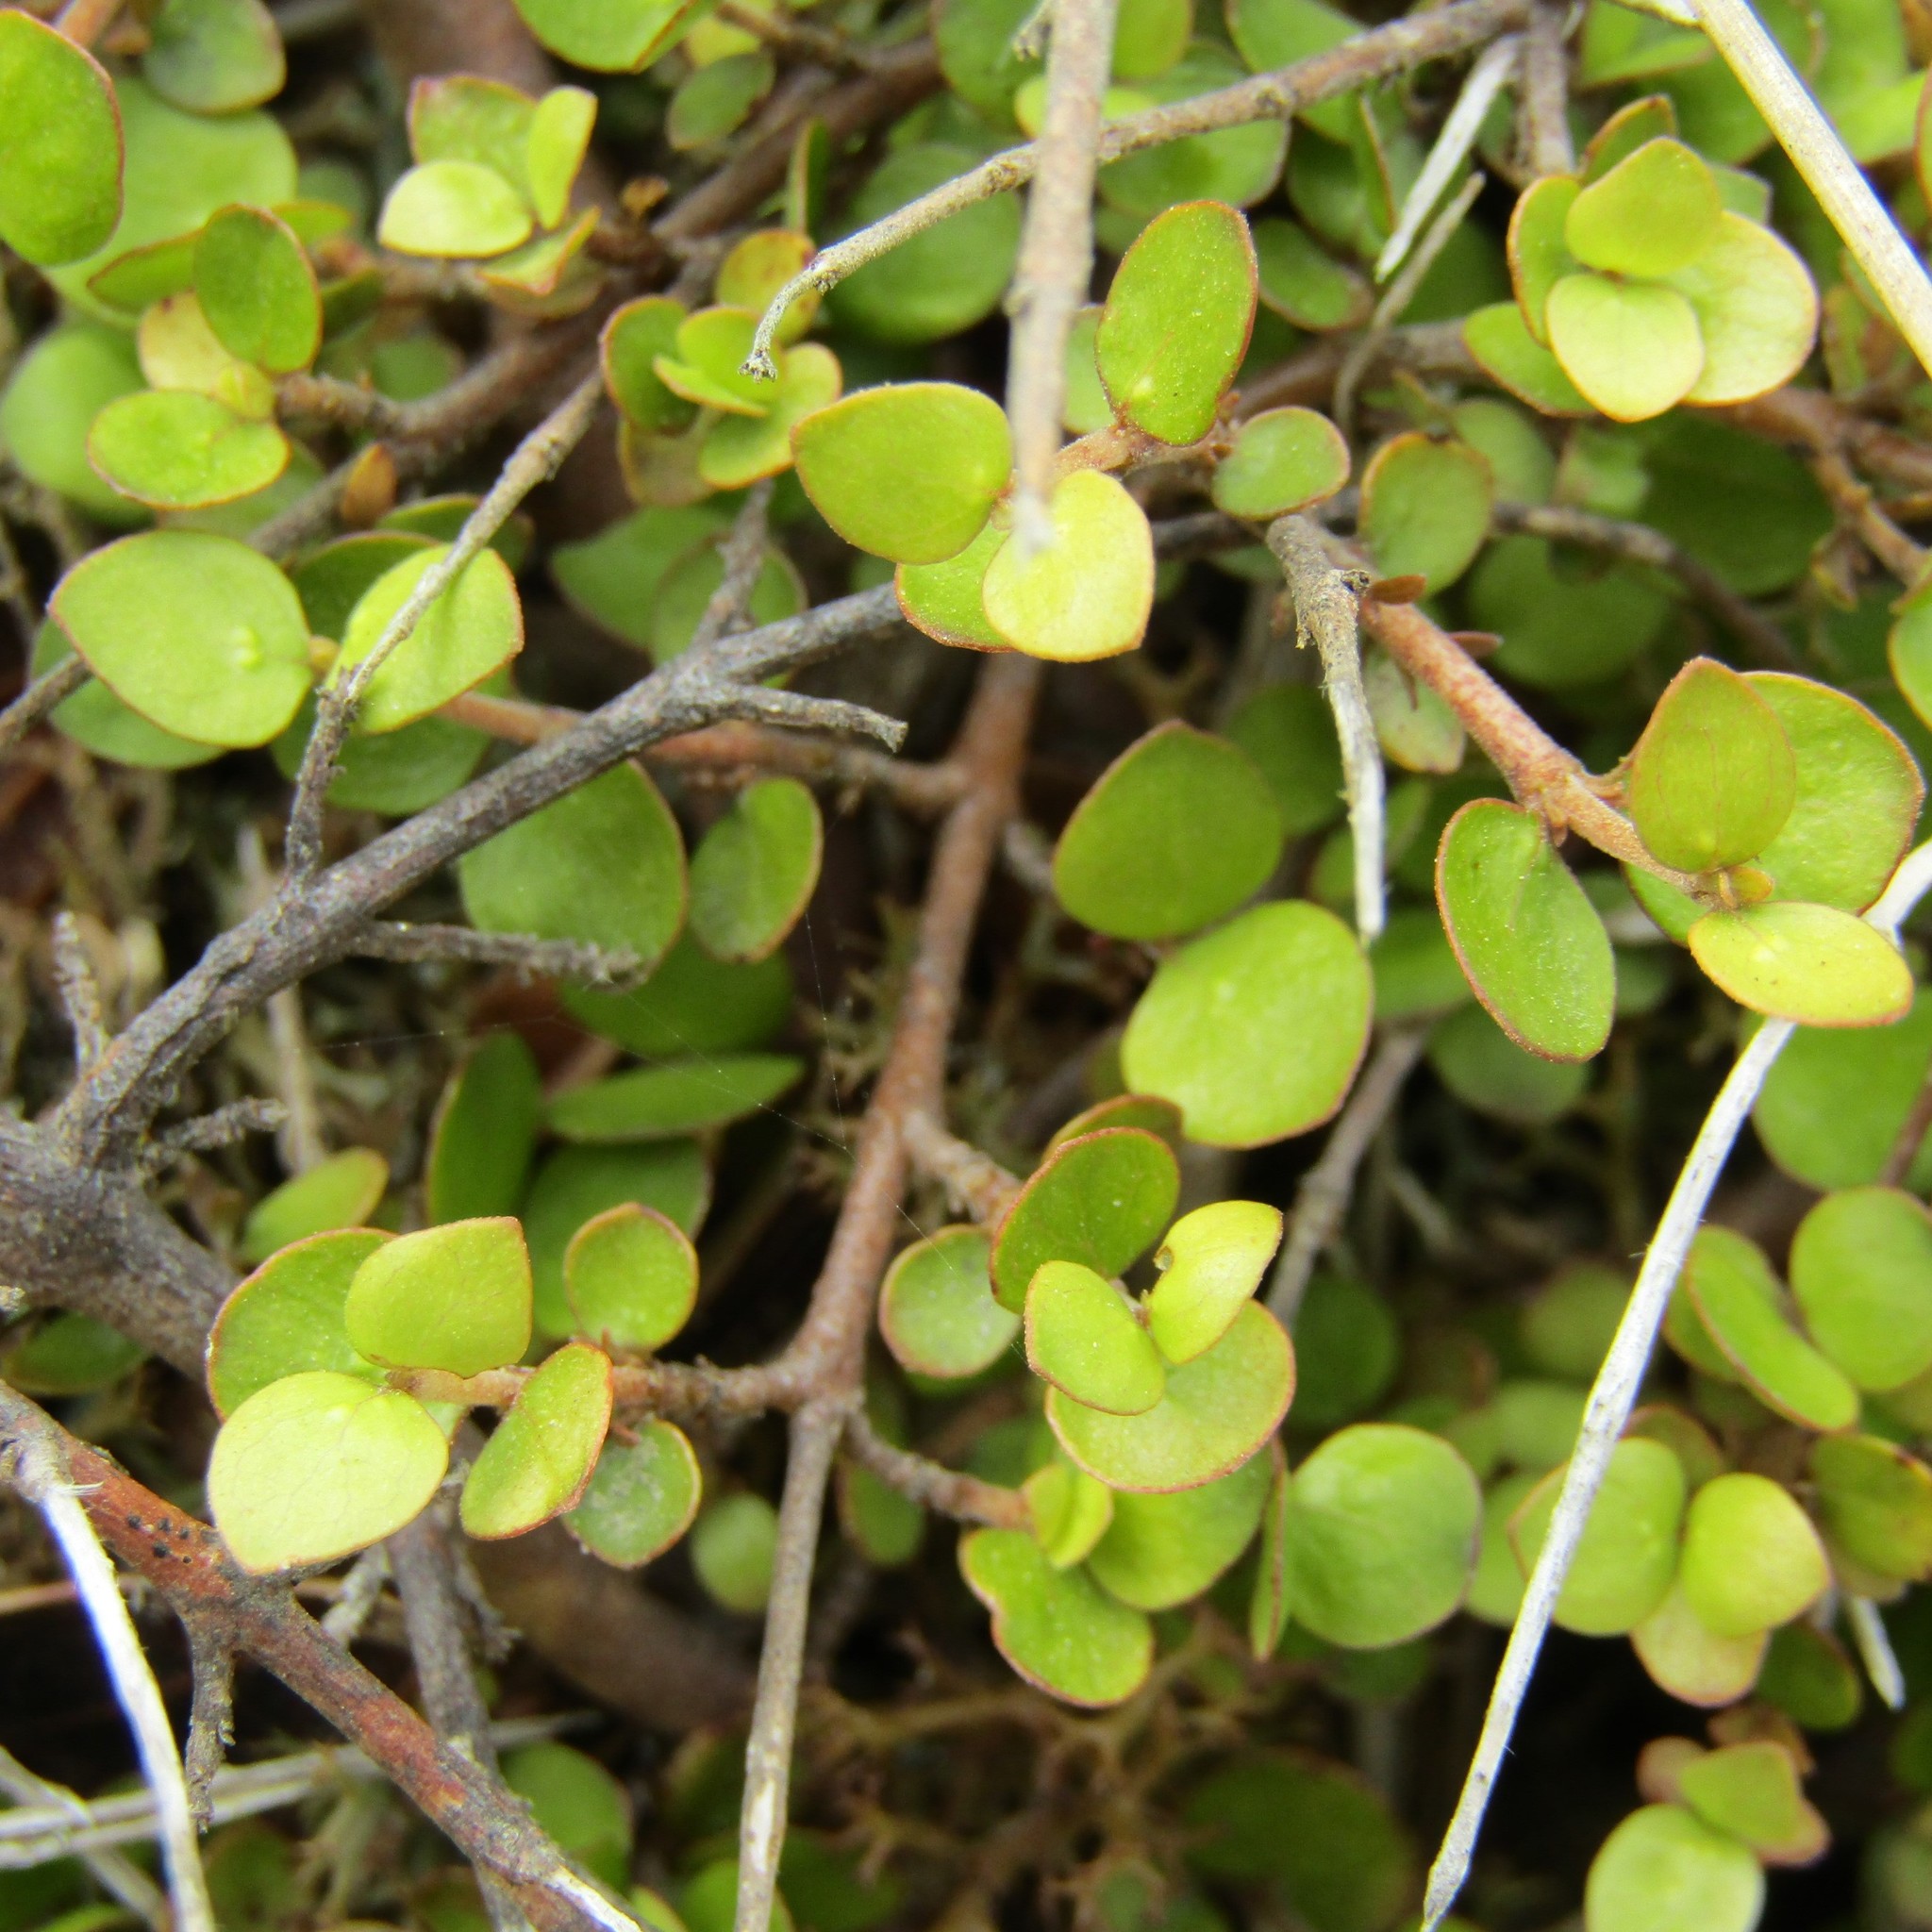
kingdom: Plantae
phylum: Tracheophyta
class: Magnoliopsida
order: Gentianales
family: Rubiaceae
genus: Coprosma
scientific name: Coprosma rhamnoides
